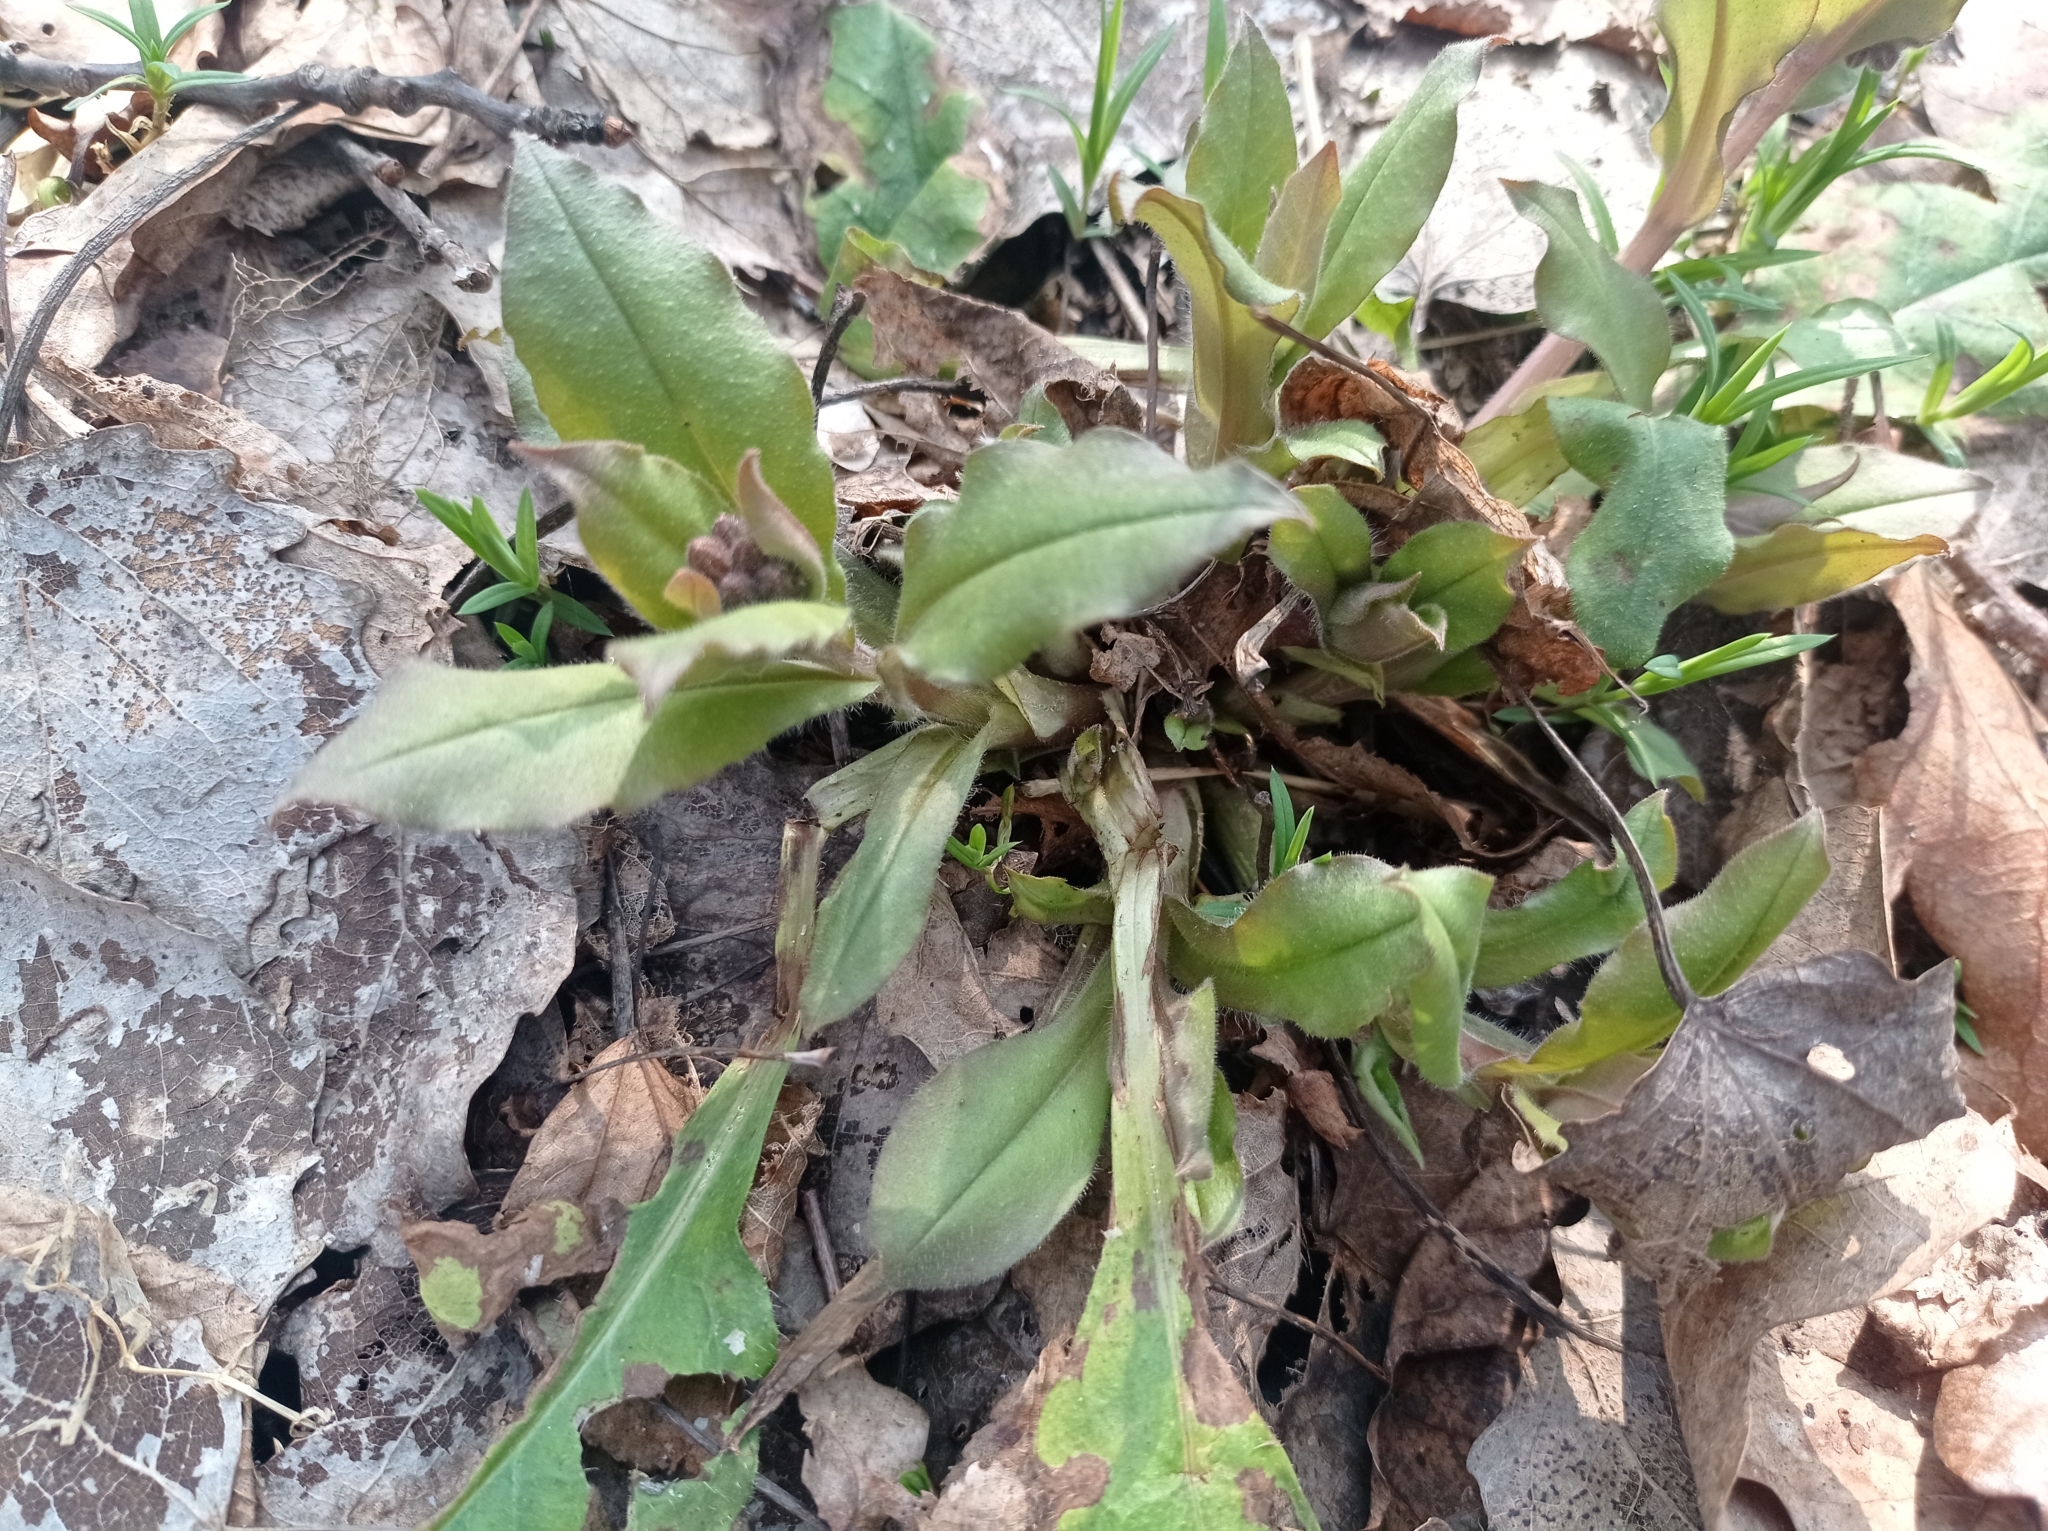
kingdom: Plantae
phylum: Tracheophyta
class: Magnoliopsida
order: Boraginales
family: Boraginaceae
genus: Pulmonaria
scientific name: Pulmonaria obscura
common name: Suffolk lungwort
